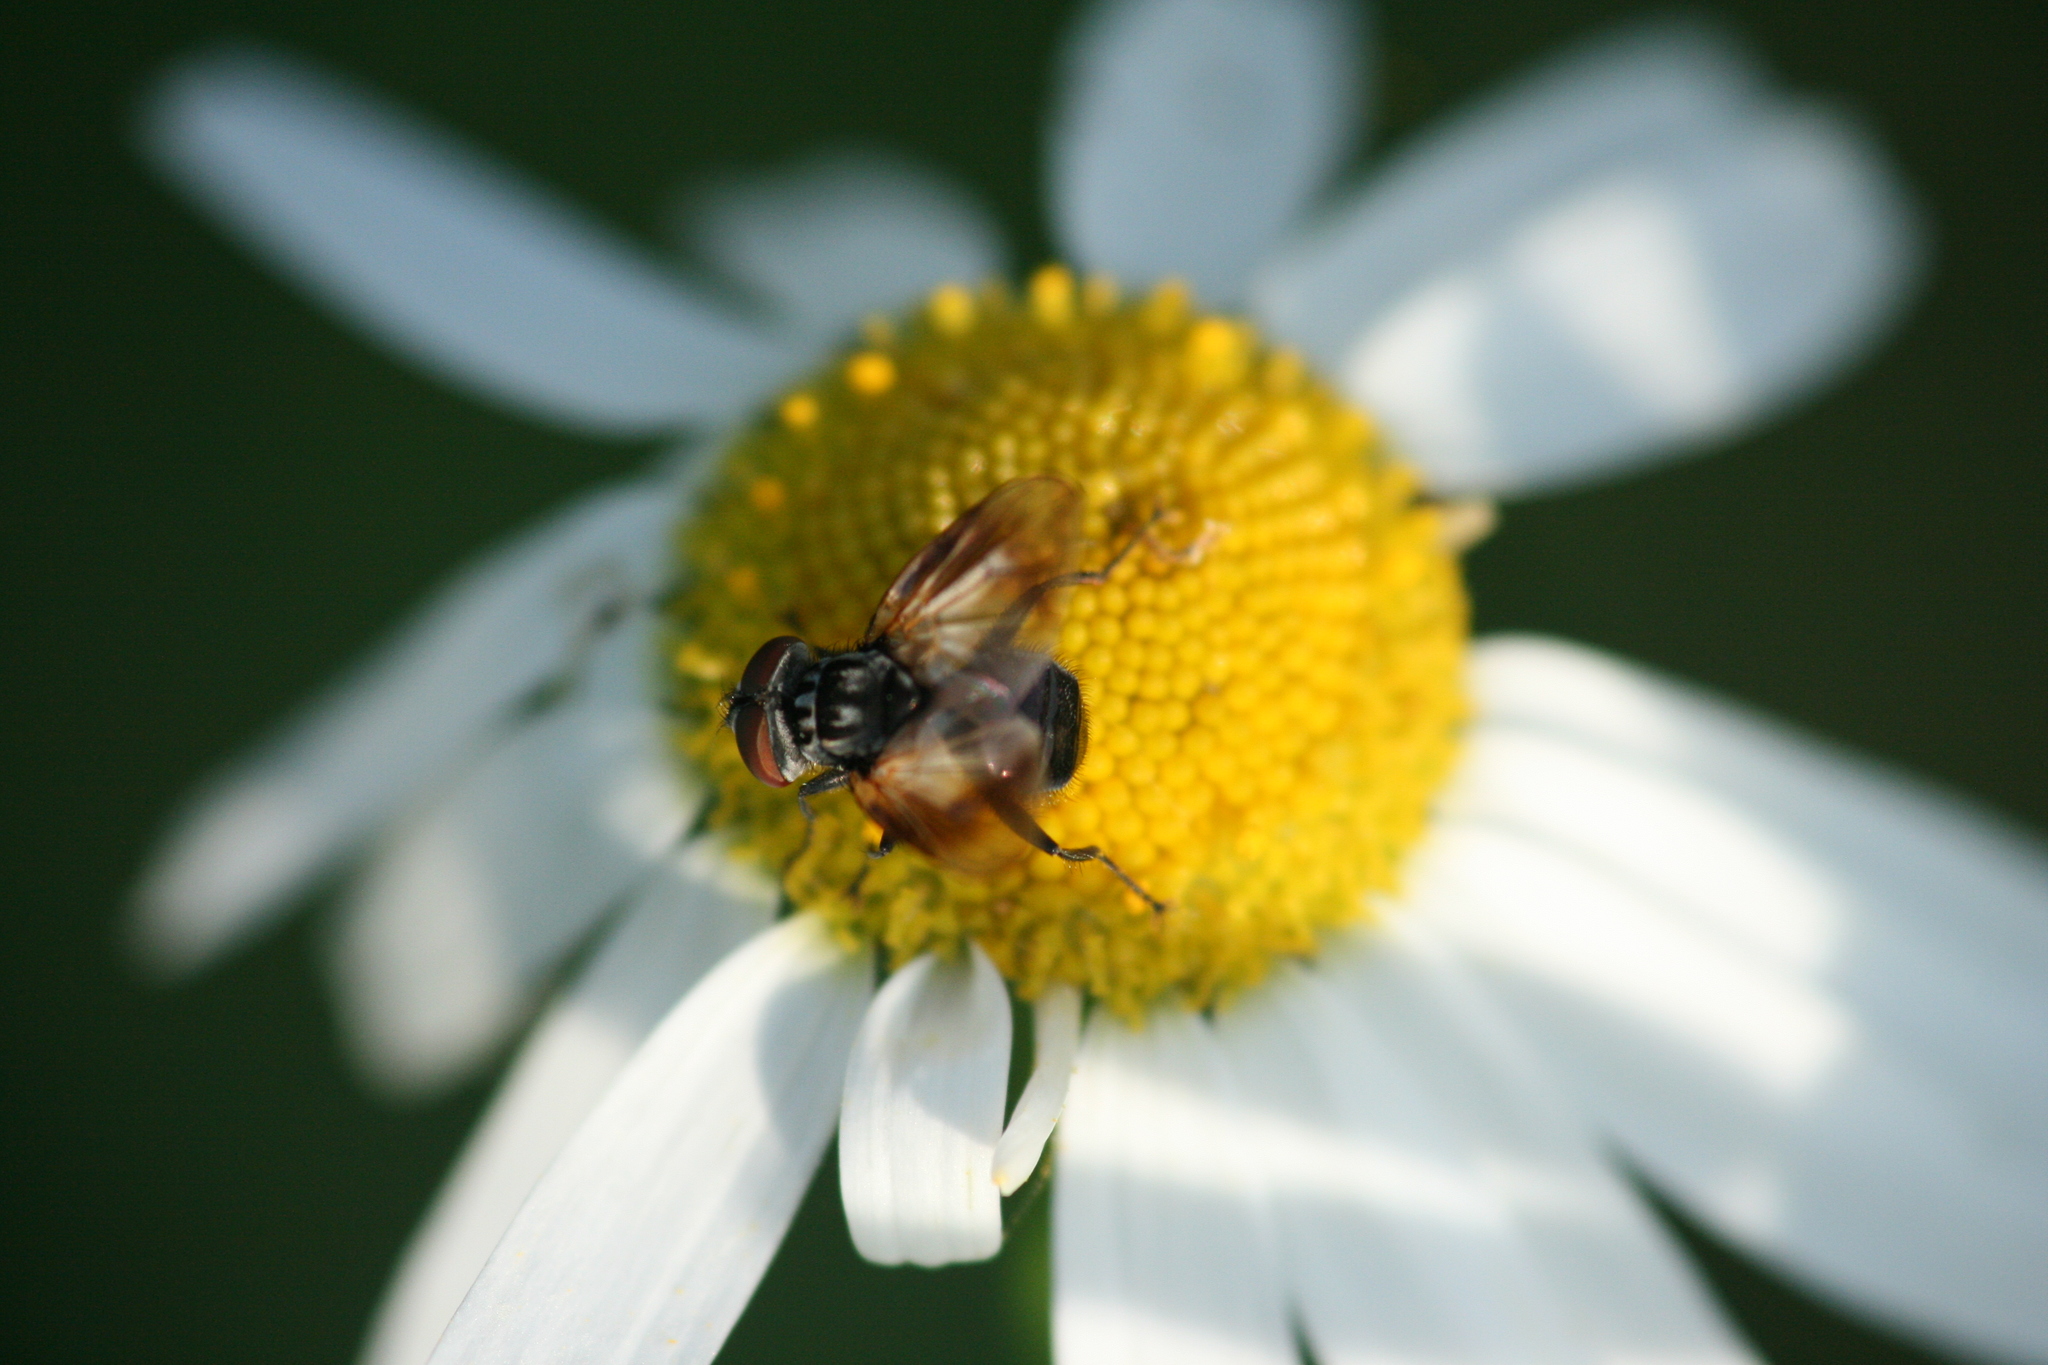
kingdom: Animalia
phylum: Arthropoda
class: Insecta
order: Diptera
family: Tachinidae
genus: Phasia
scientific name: Phasia obesa
